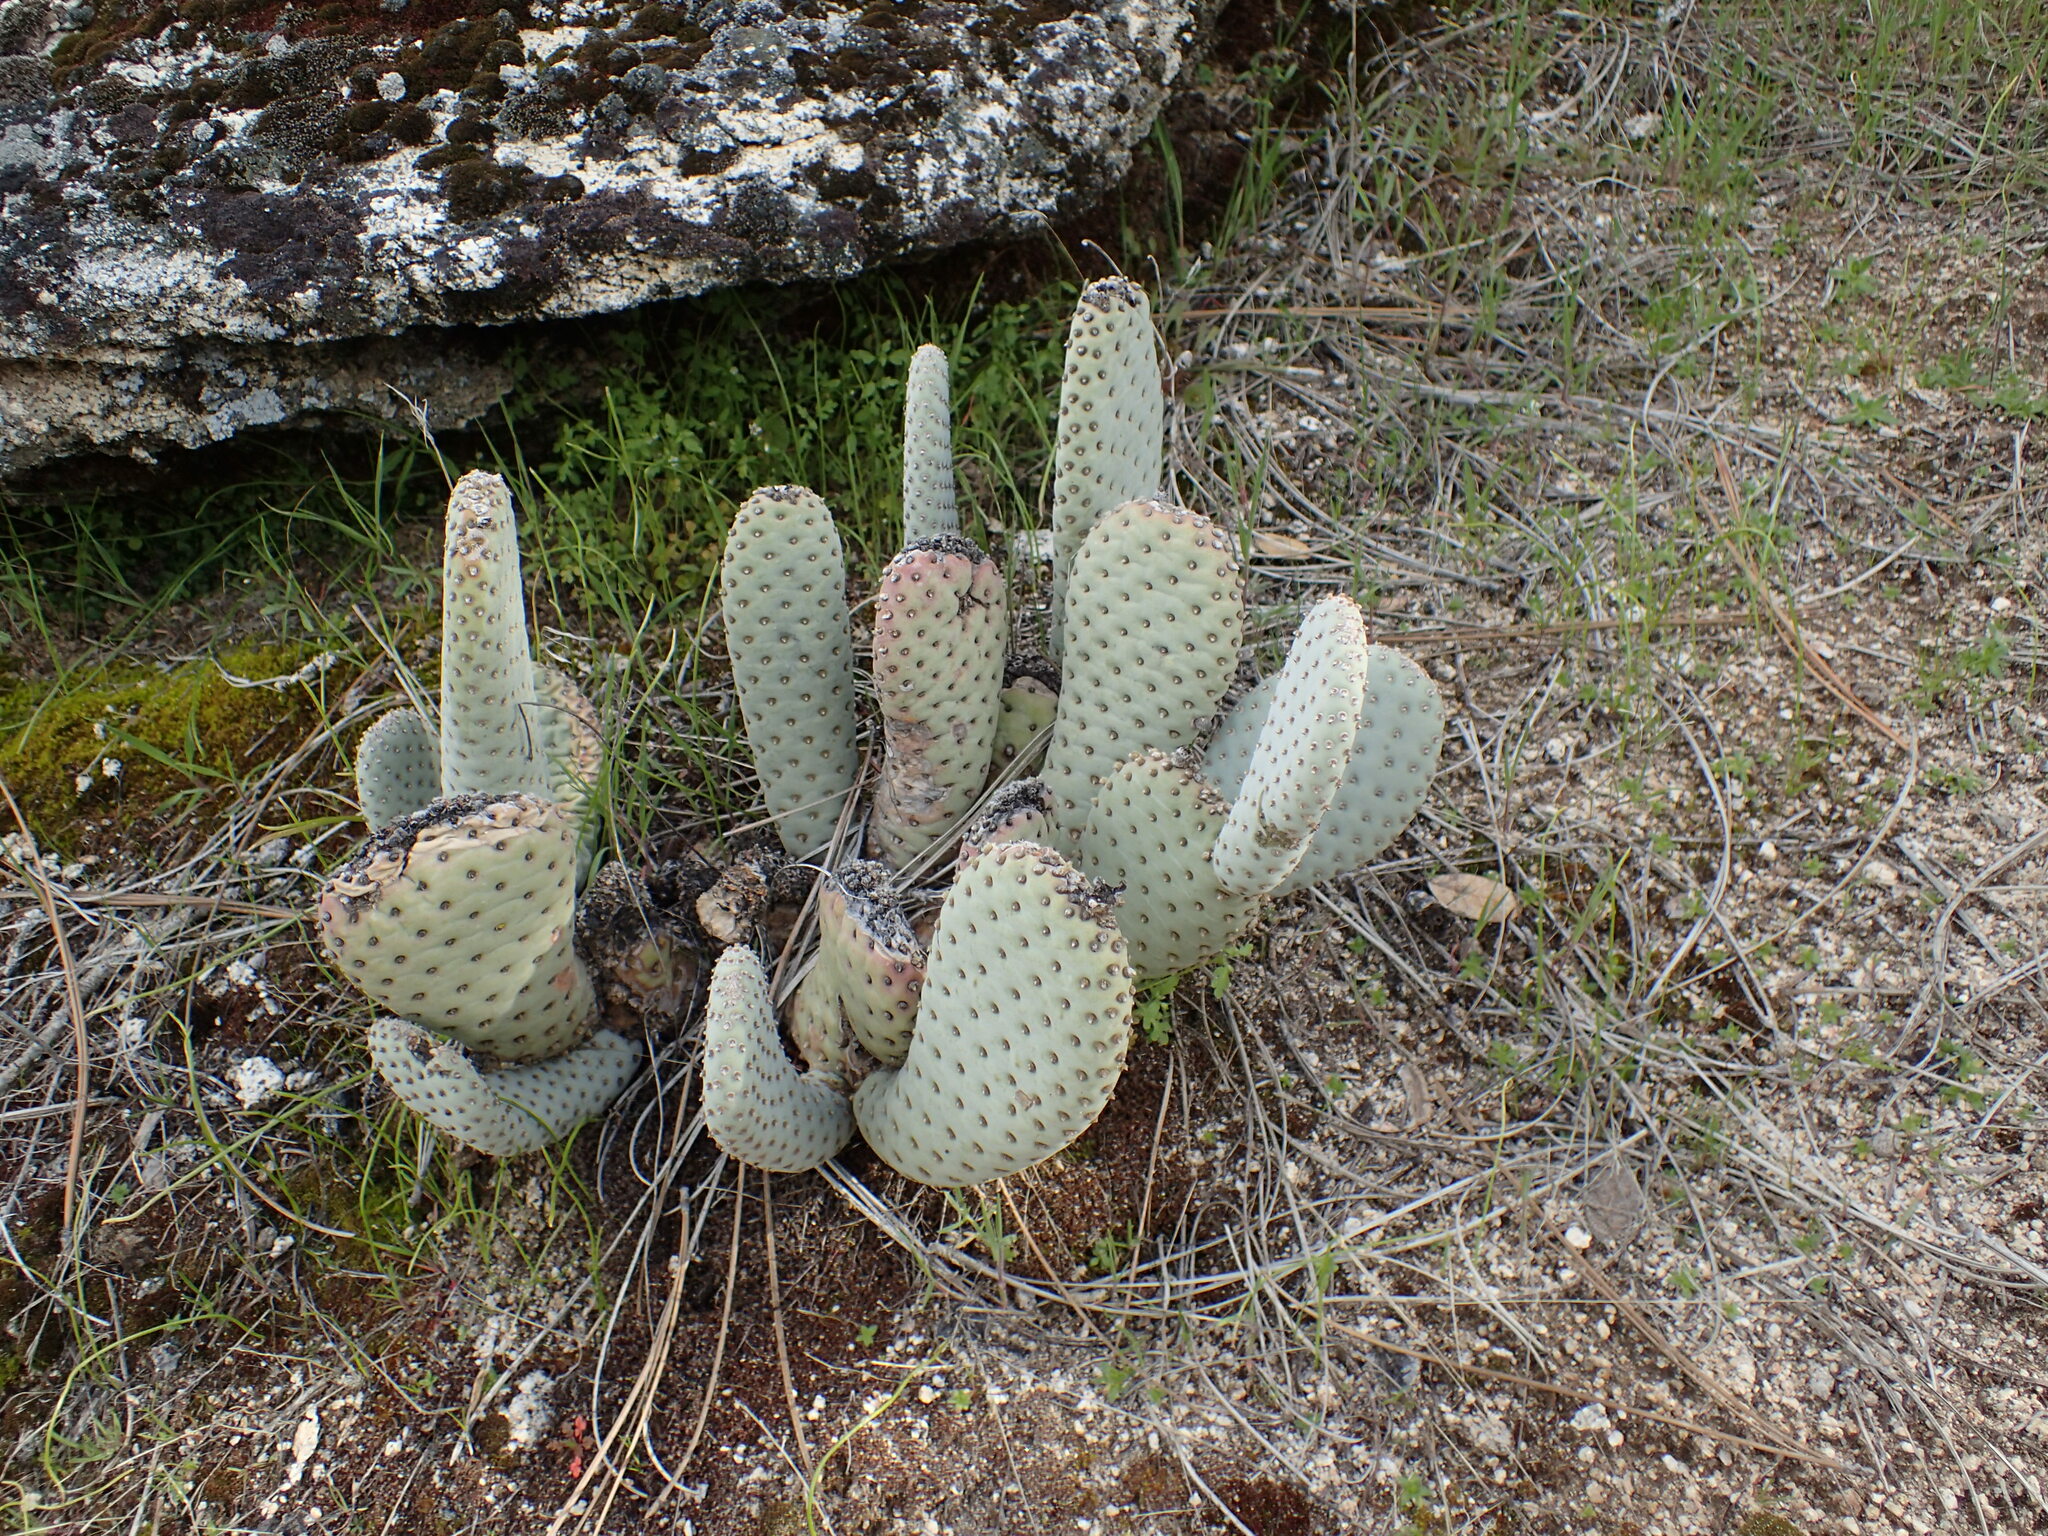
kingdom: Plantae
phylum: Tracheophyta
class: Magnoliopsida
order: Caryophyllales
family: Cactaceae
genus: Opuntia
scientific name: Opuntia basilaris
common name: Beavertail prickly-pear
